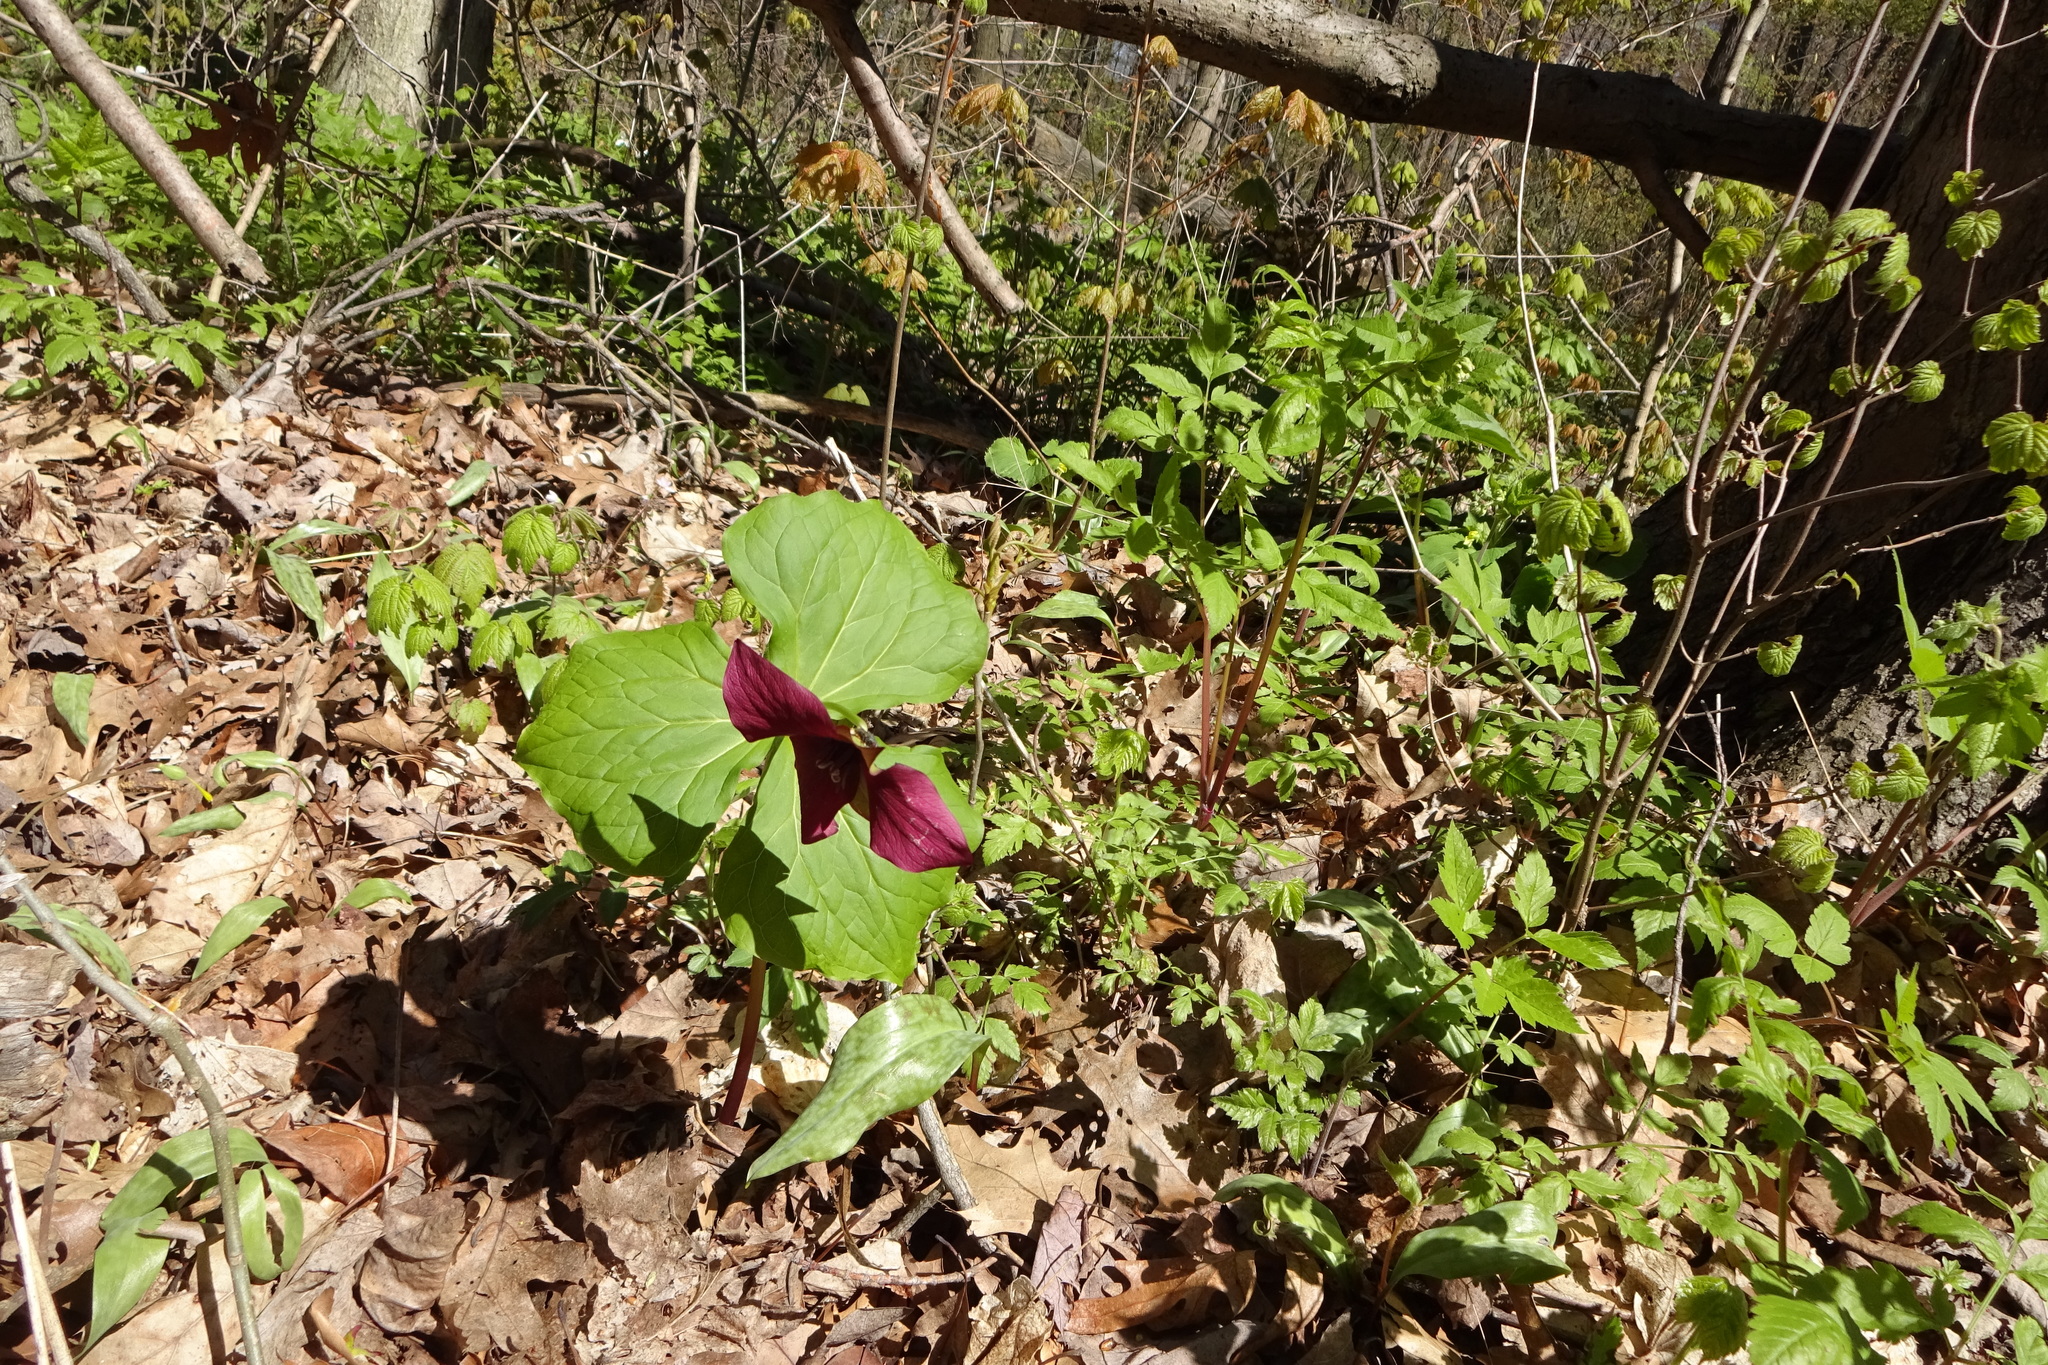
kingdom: Plantae
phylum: Tracheophyta
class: Liliopsida
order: Liliales
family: Melanthiaceae
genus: Trillium
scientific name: Trillium erectum
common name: Purple trillium
